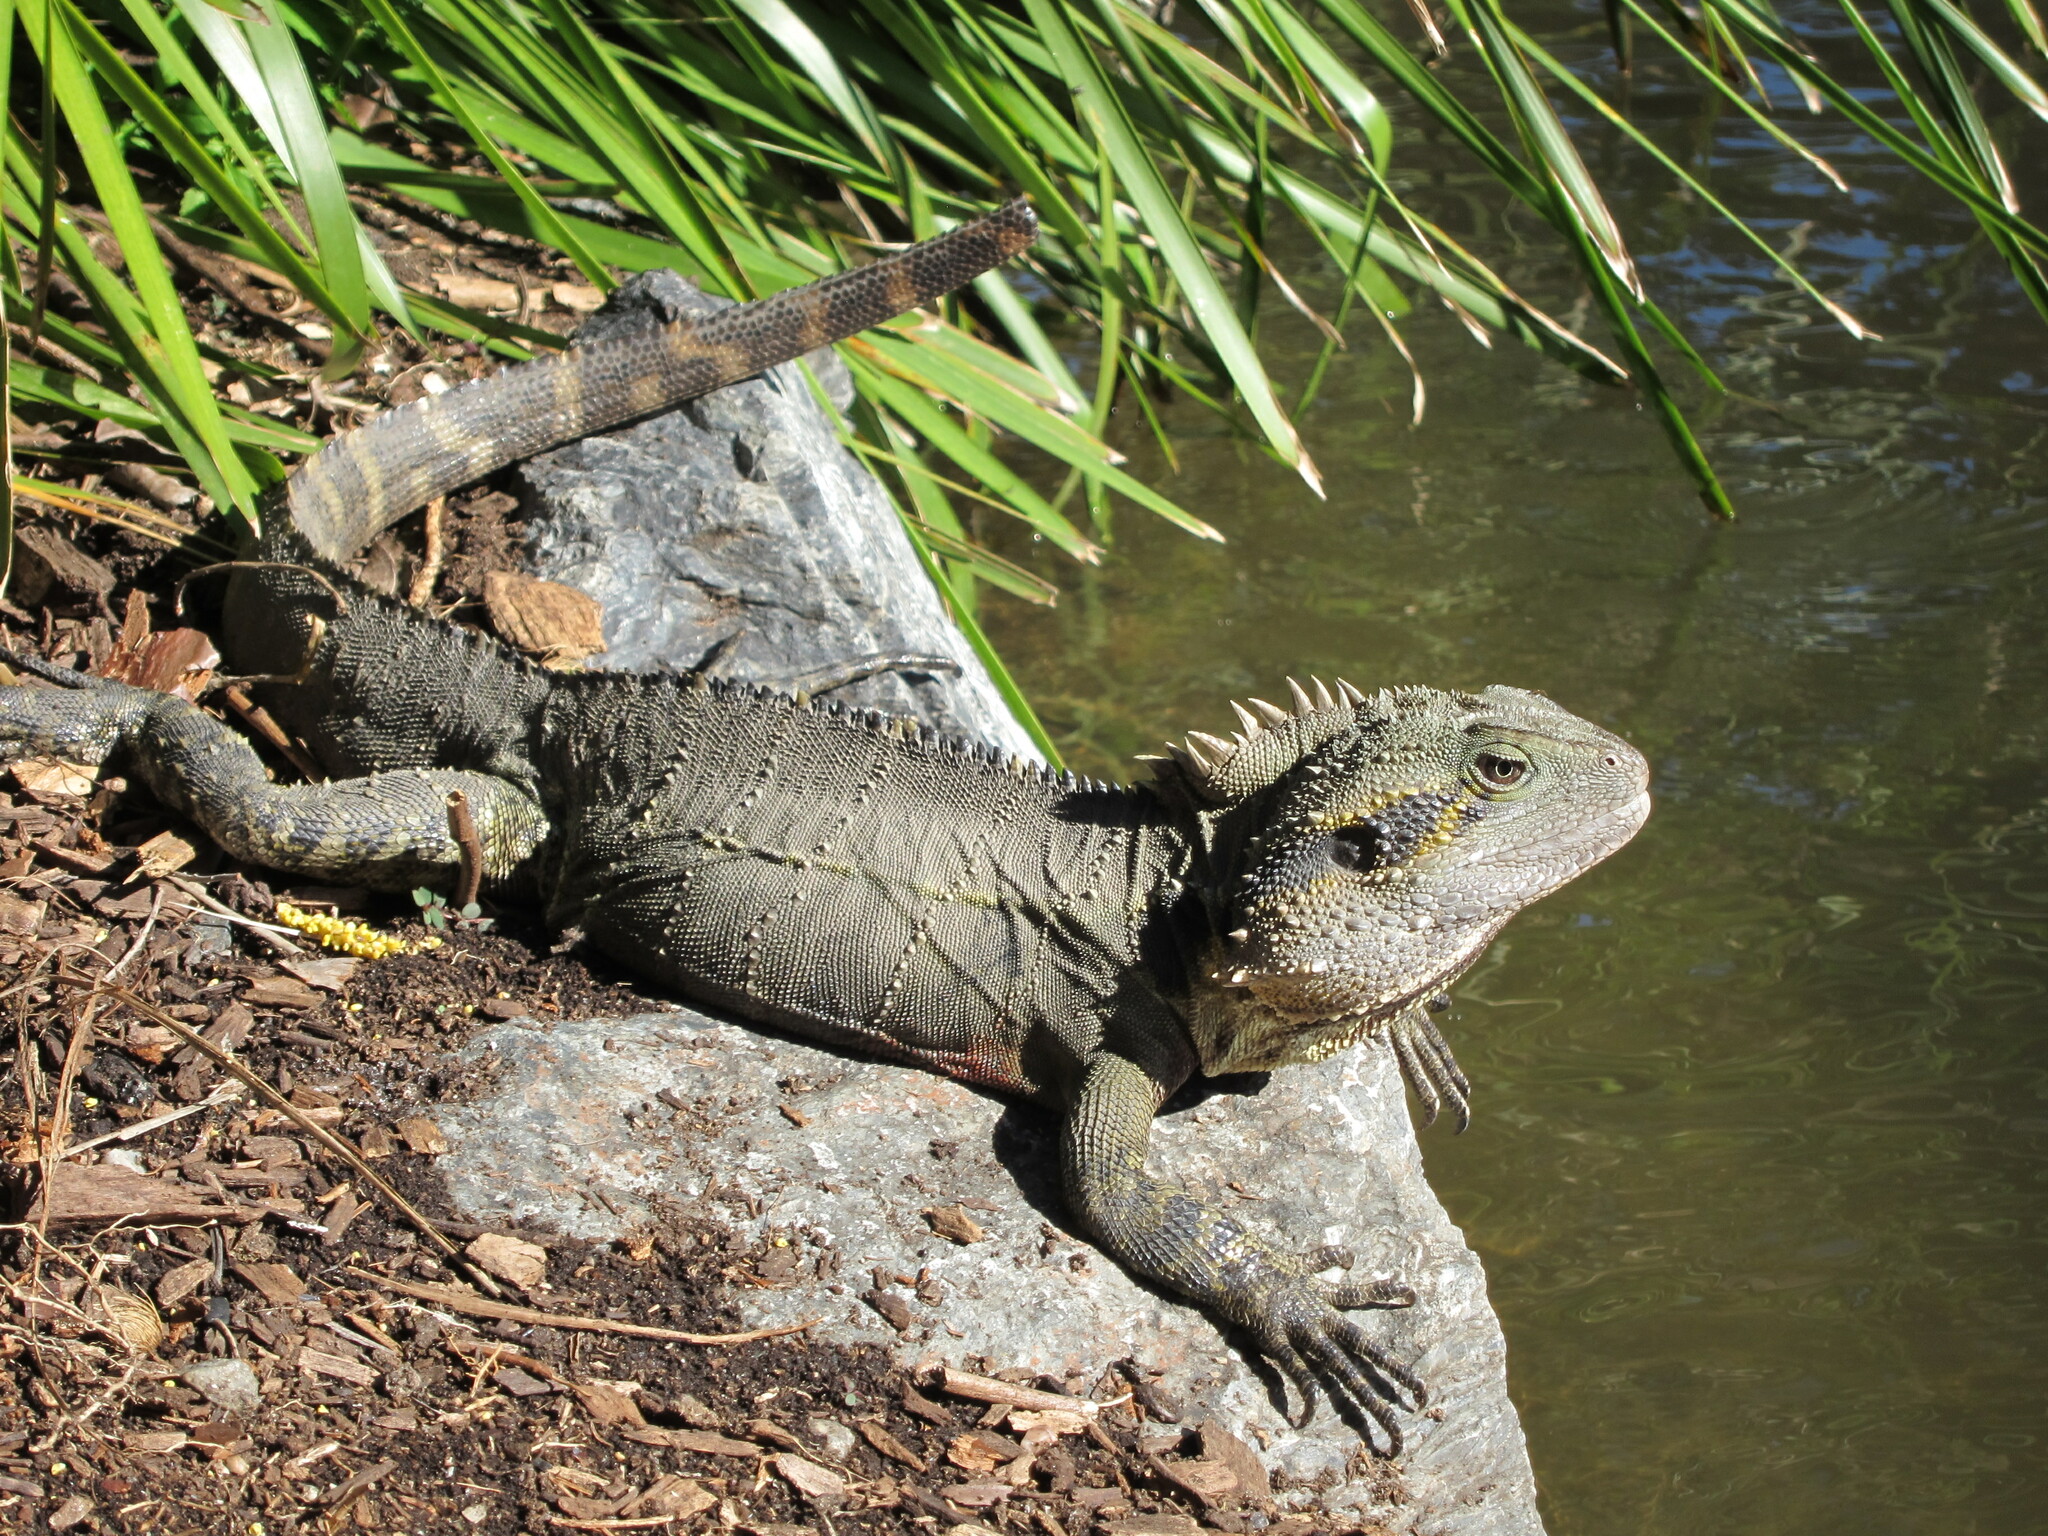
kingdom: Animalia
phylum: Chordata
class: Squamata
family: Agamidae
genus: Intellagama
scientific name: Intellagama lesueurii
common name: Eastern water dragon
